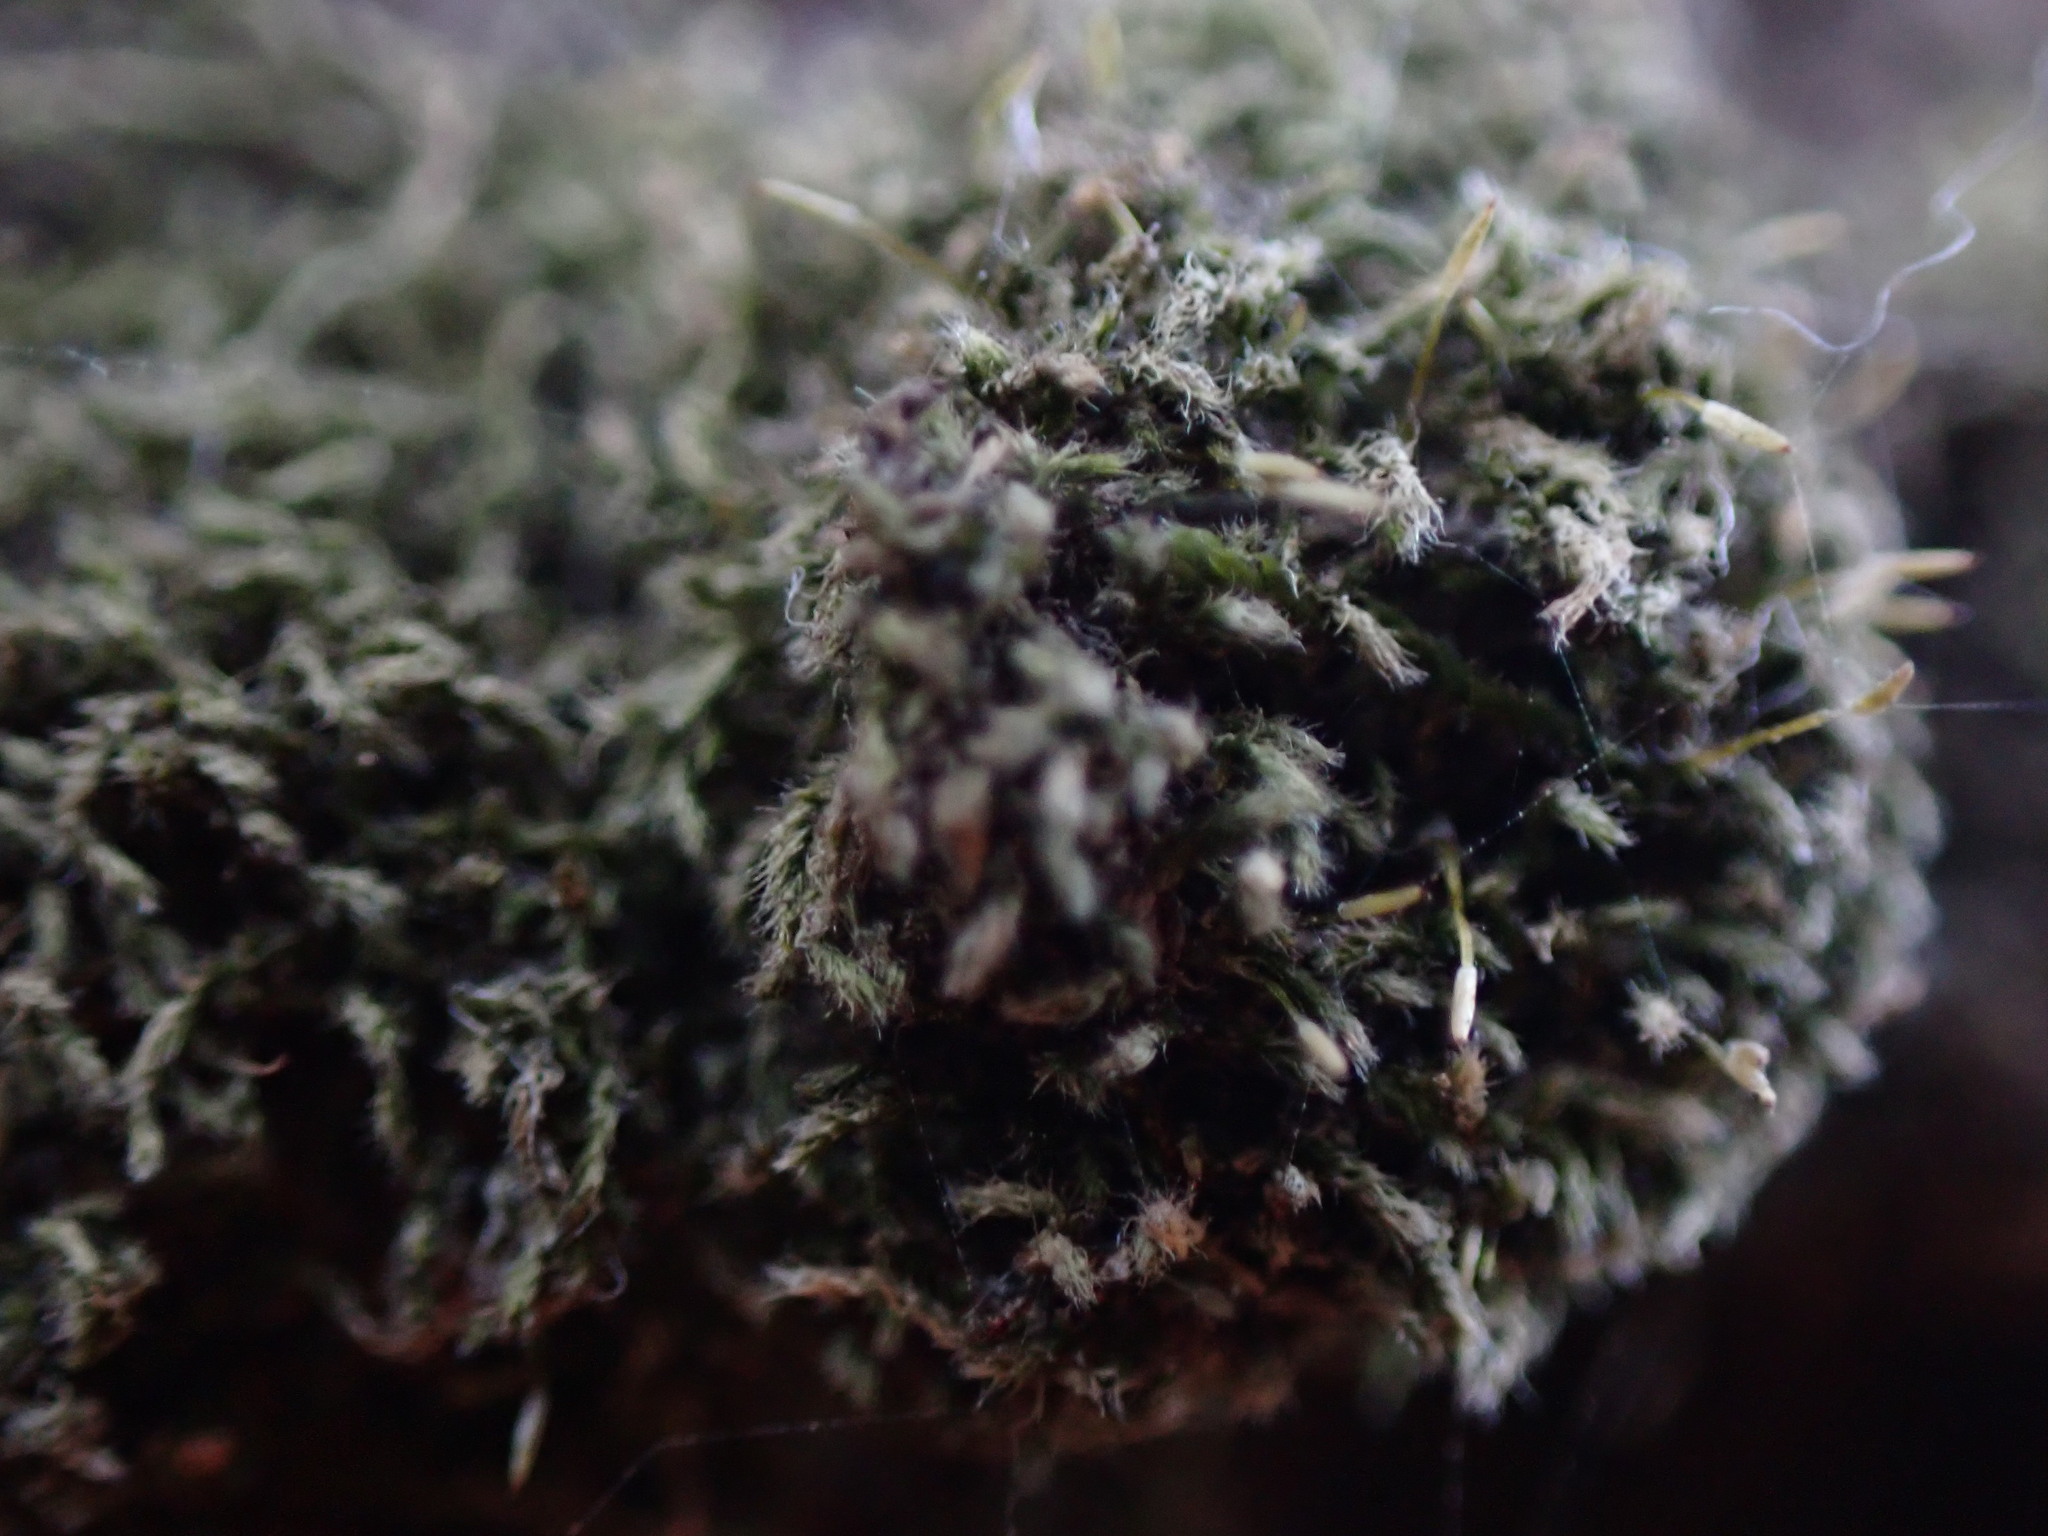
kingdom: Plantae
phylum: Bryophyta
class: Bryopsida
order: Hypnales
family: Fabroniaceae
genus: Fabronia
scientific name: Fabronia matsumurae
